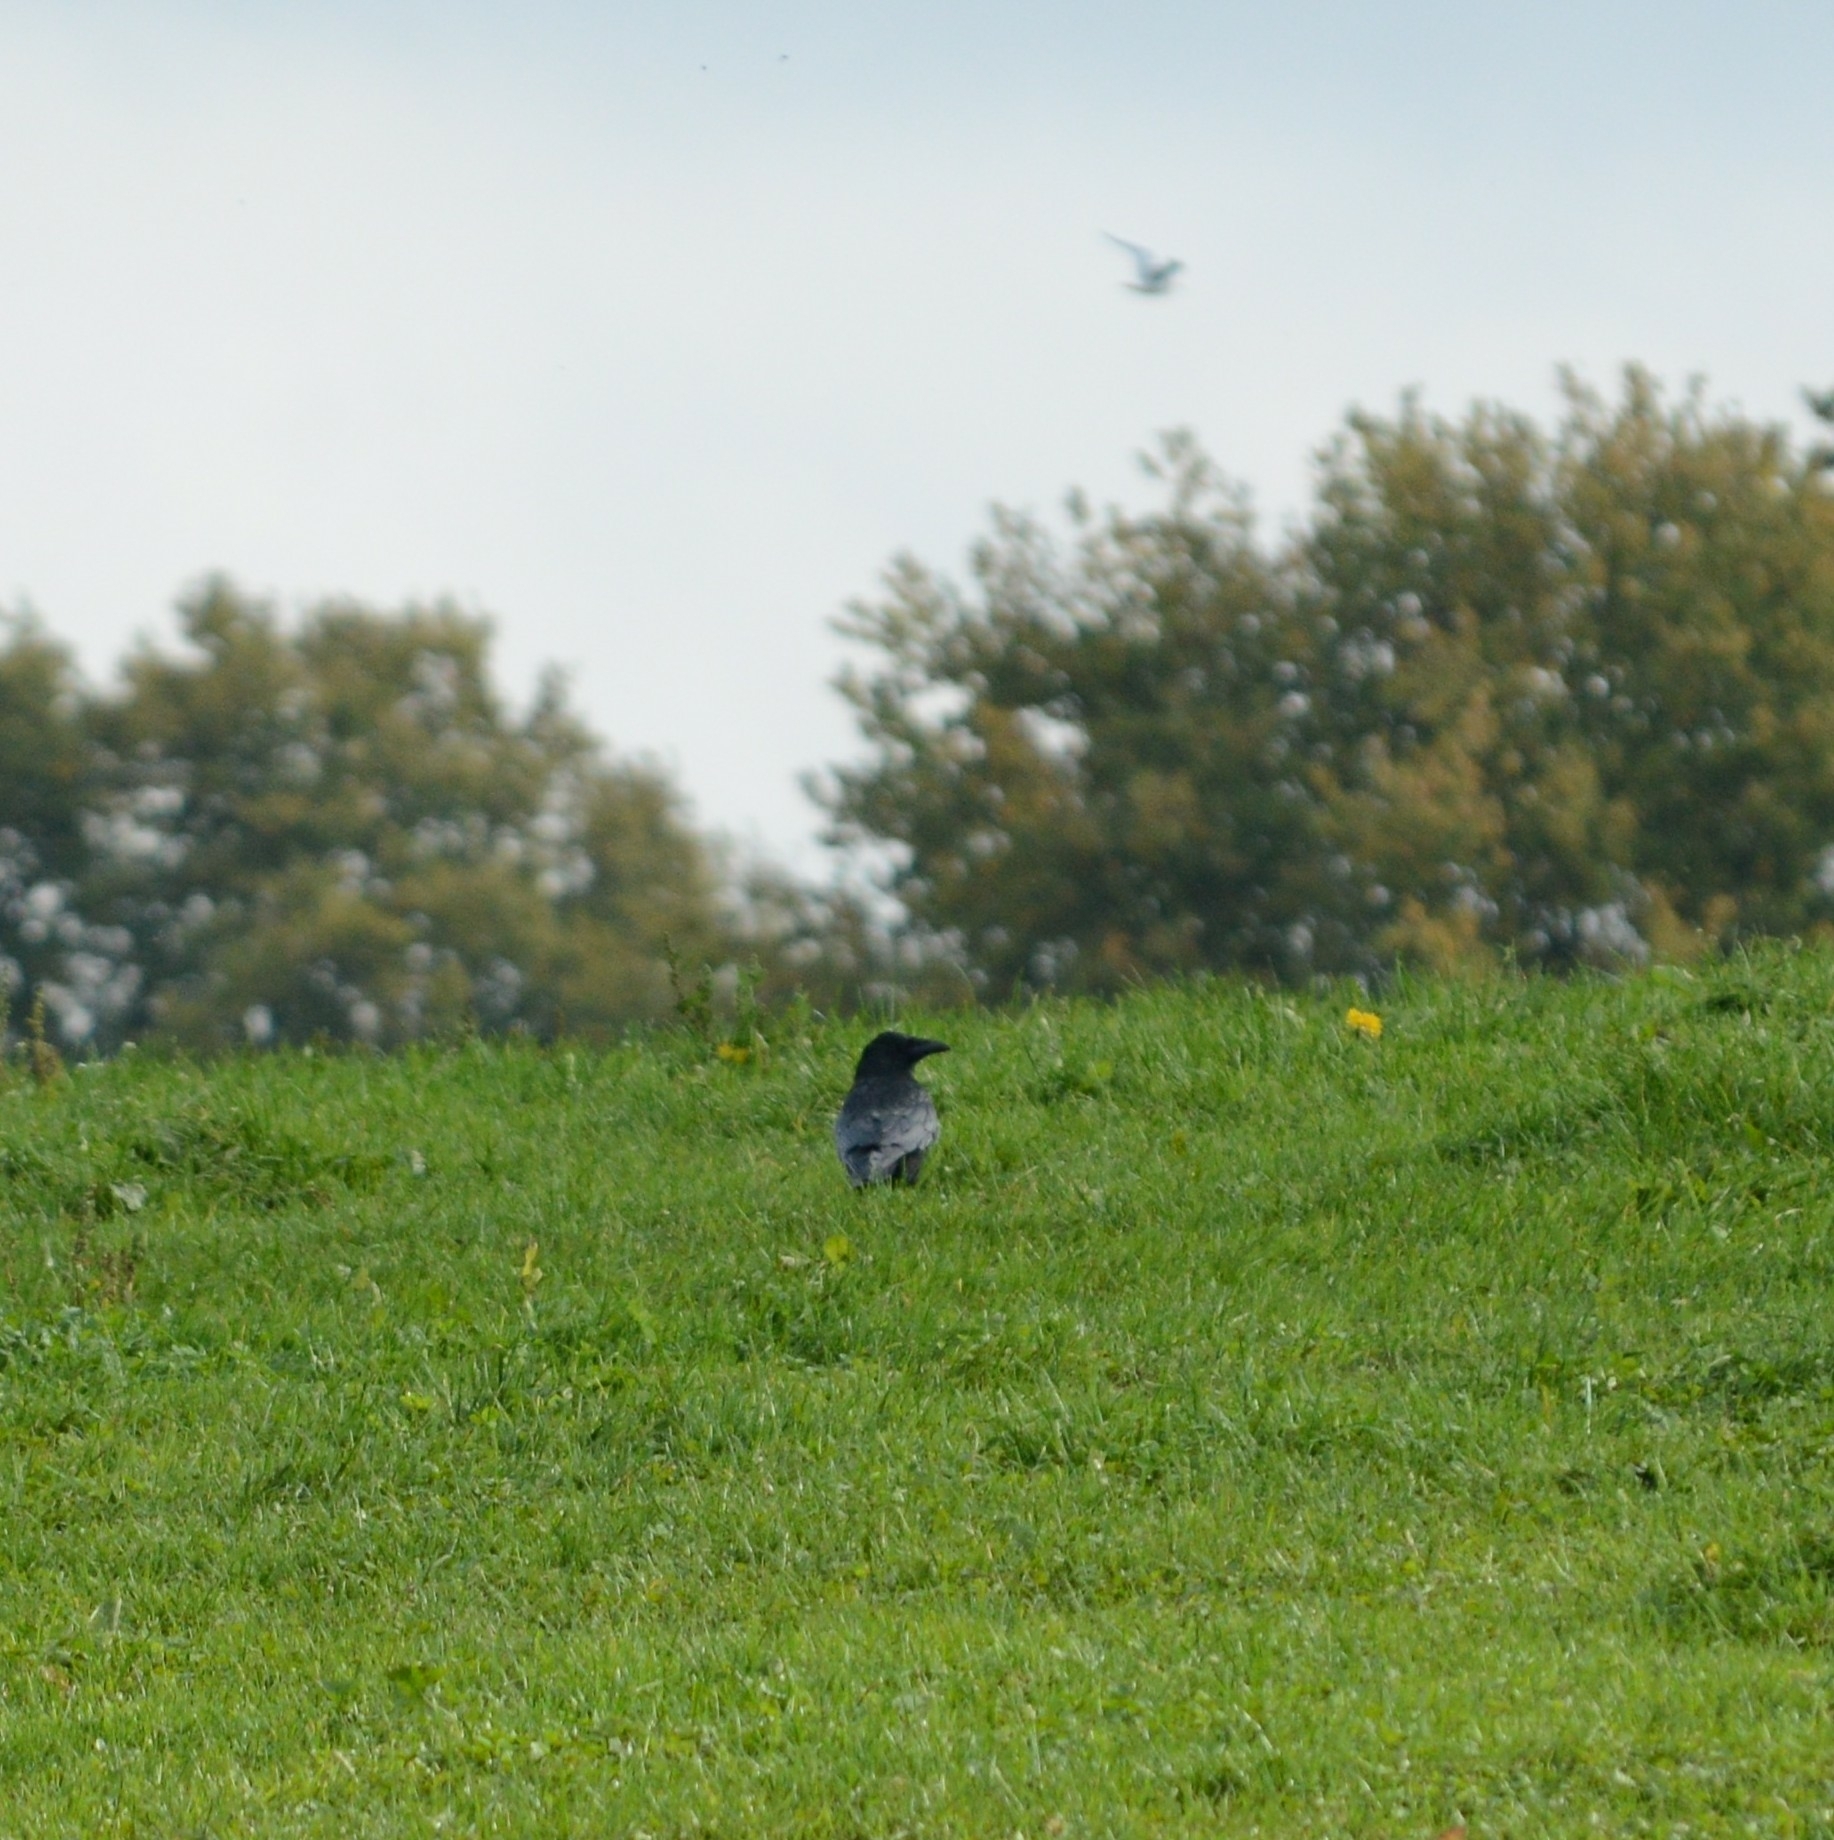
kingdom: Animalia
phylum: Chordata
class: Aves
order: Passeriformes
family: Corvidae
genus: Corvus
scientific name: Corvus corone
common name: Carrion crow
